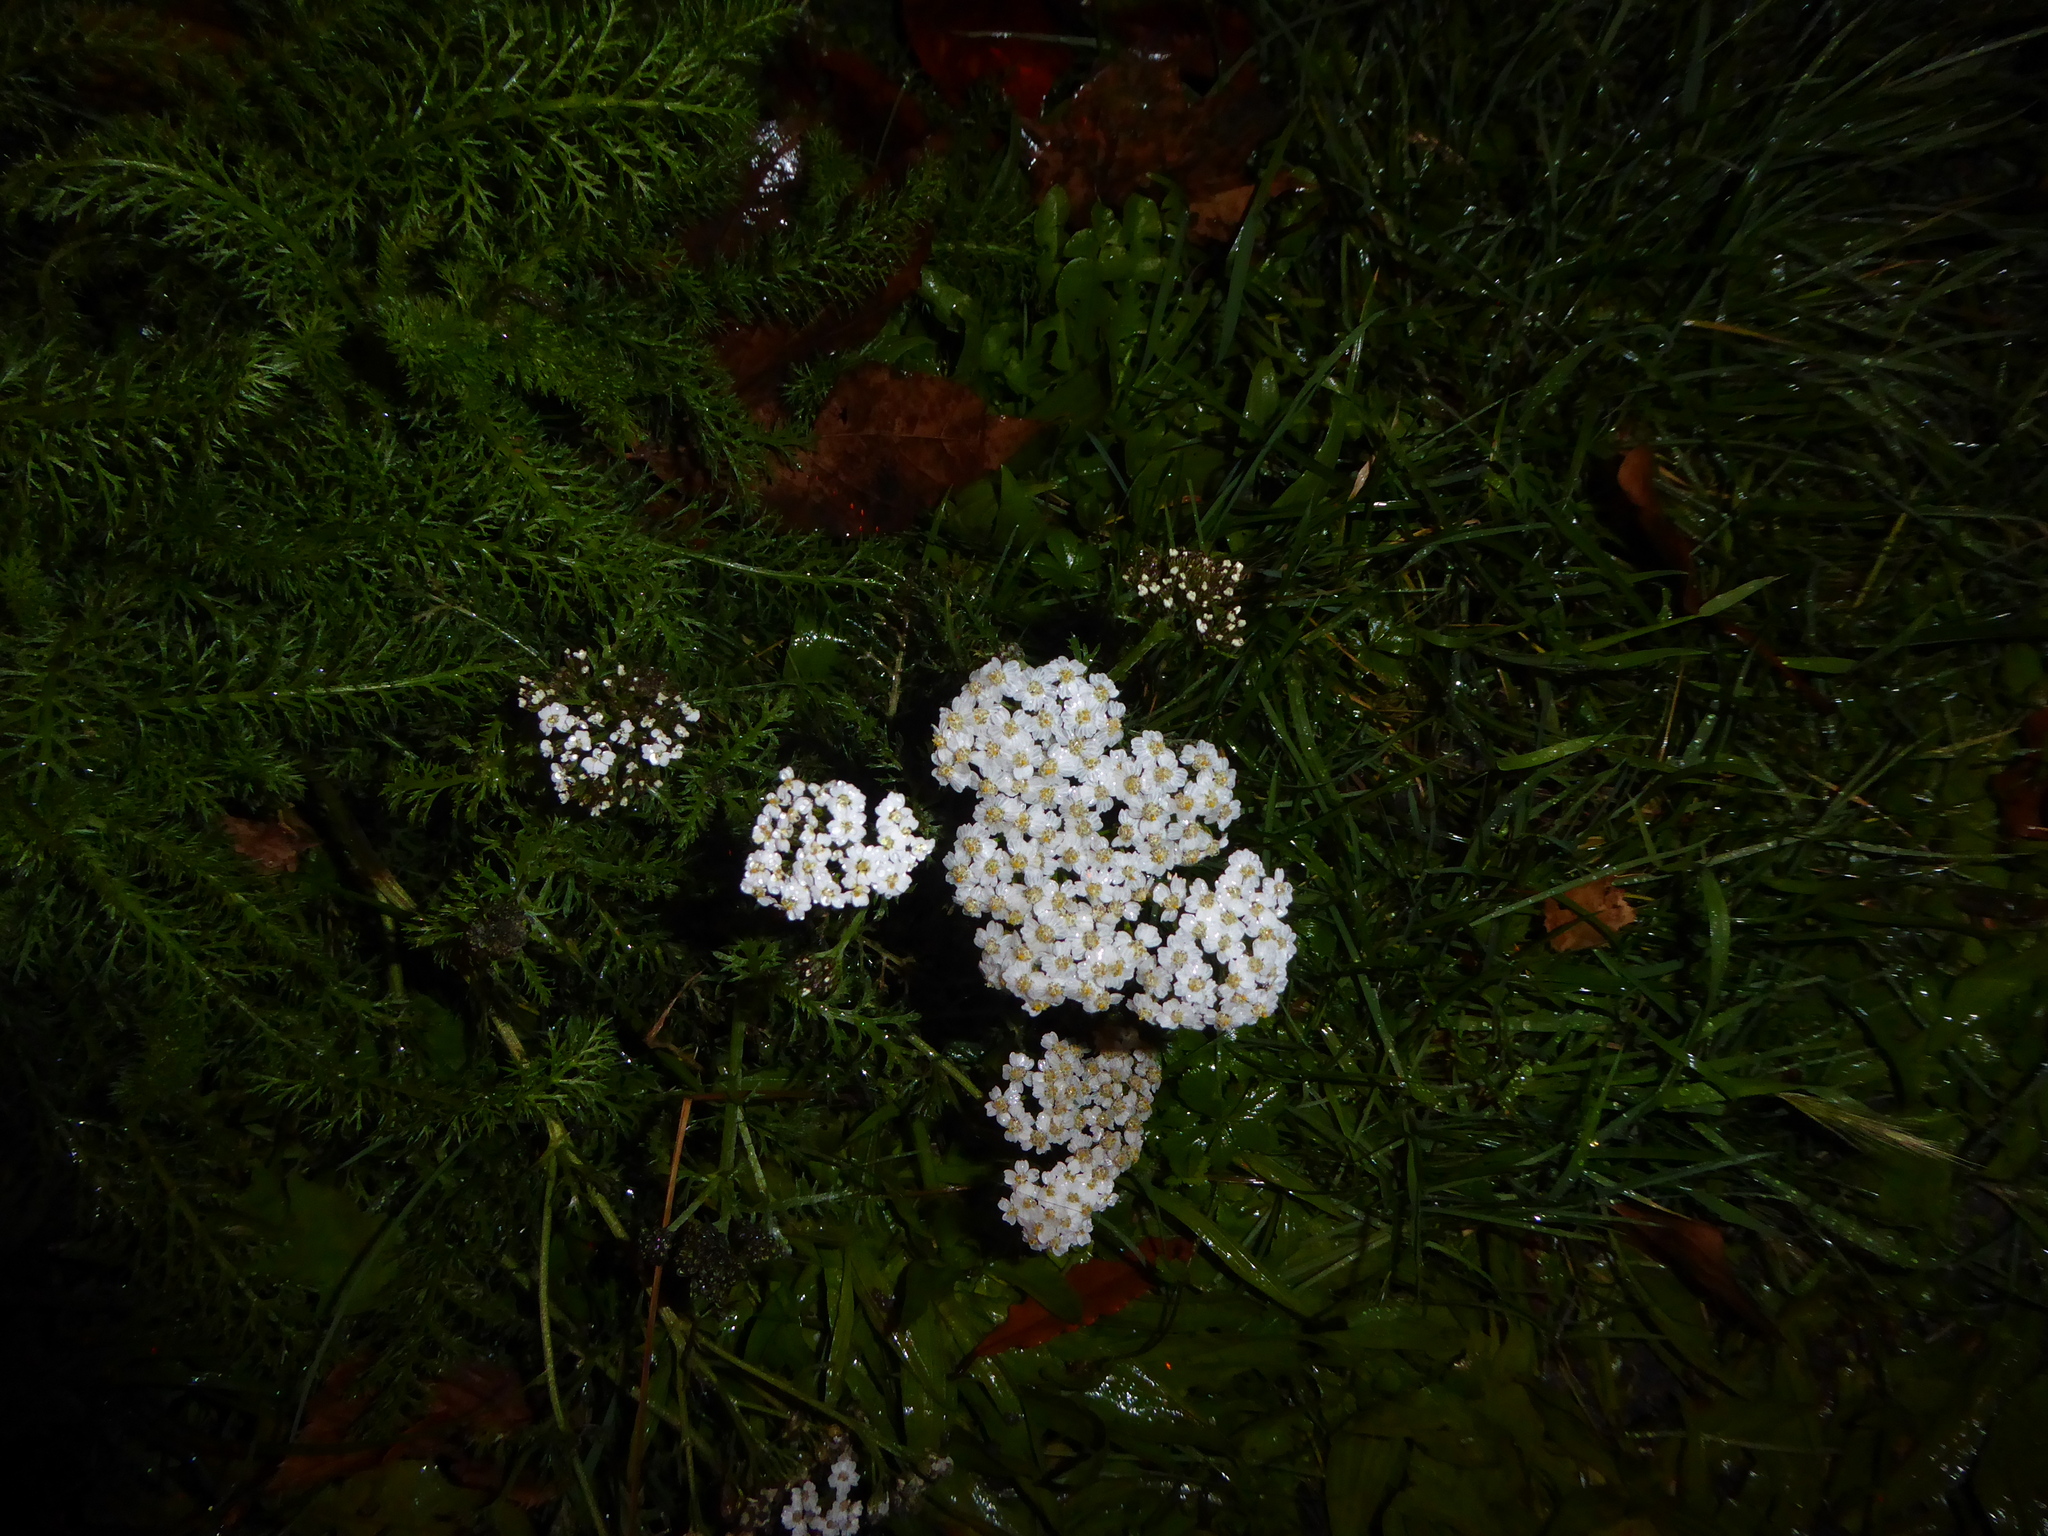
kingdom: Plantae
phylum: Tracheophyta
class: Magnoliopsida
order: Asterales
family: Asteraceae
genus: Achillea
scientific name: Achillea millefolium
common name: Yarrow
